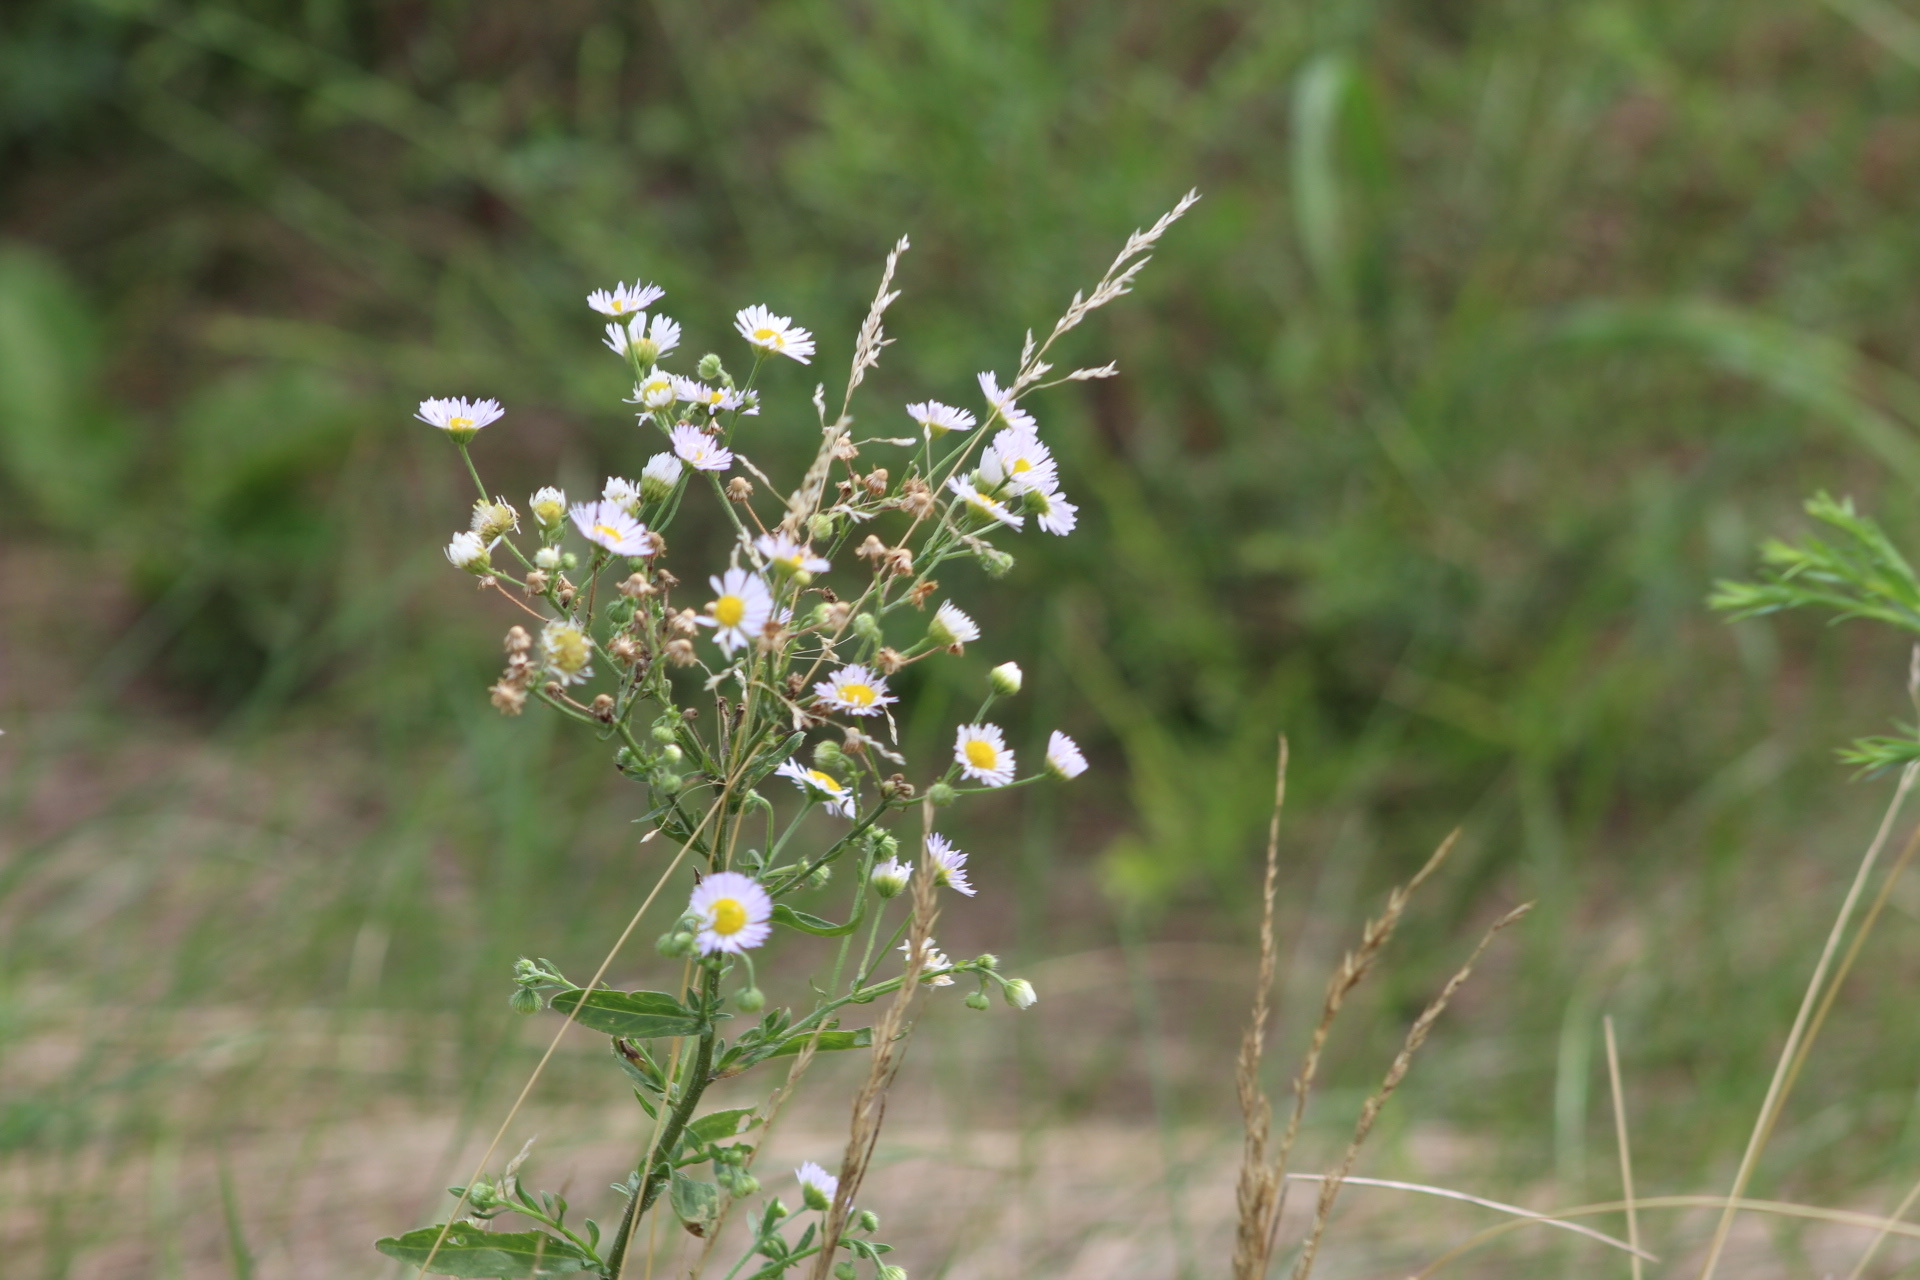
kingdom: Plantae
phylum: Tracheophyta
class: Magnoliopsida
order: Asterales
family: Asteraceae
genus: Erigeron
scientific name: Erigeron strigosus
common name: Common eastern fleabane
